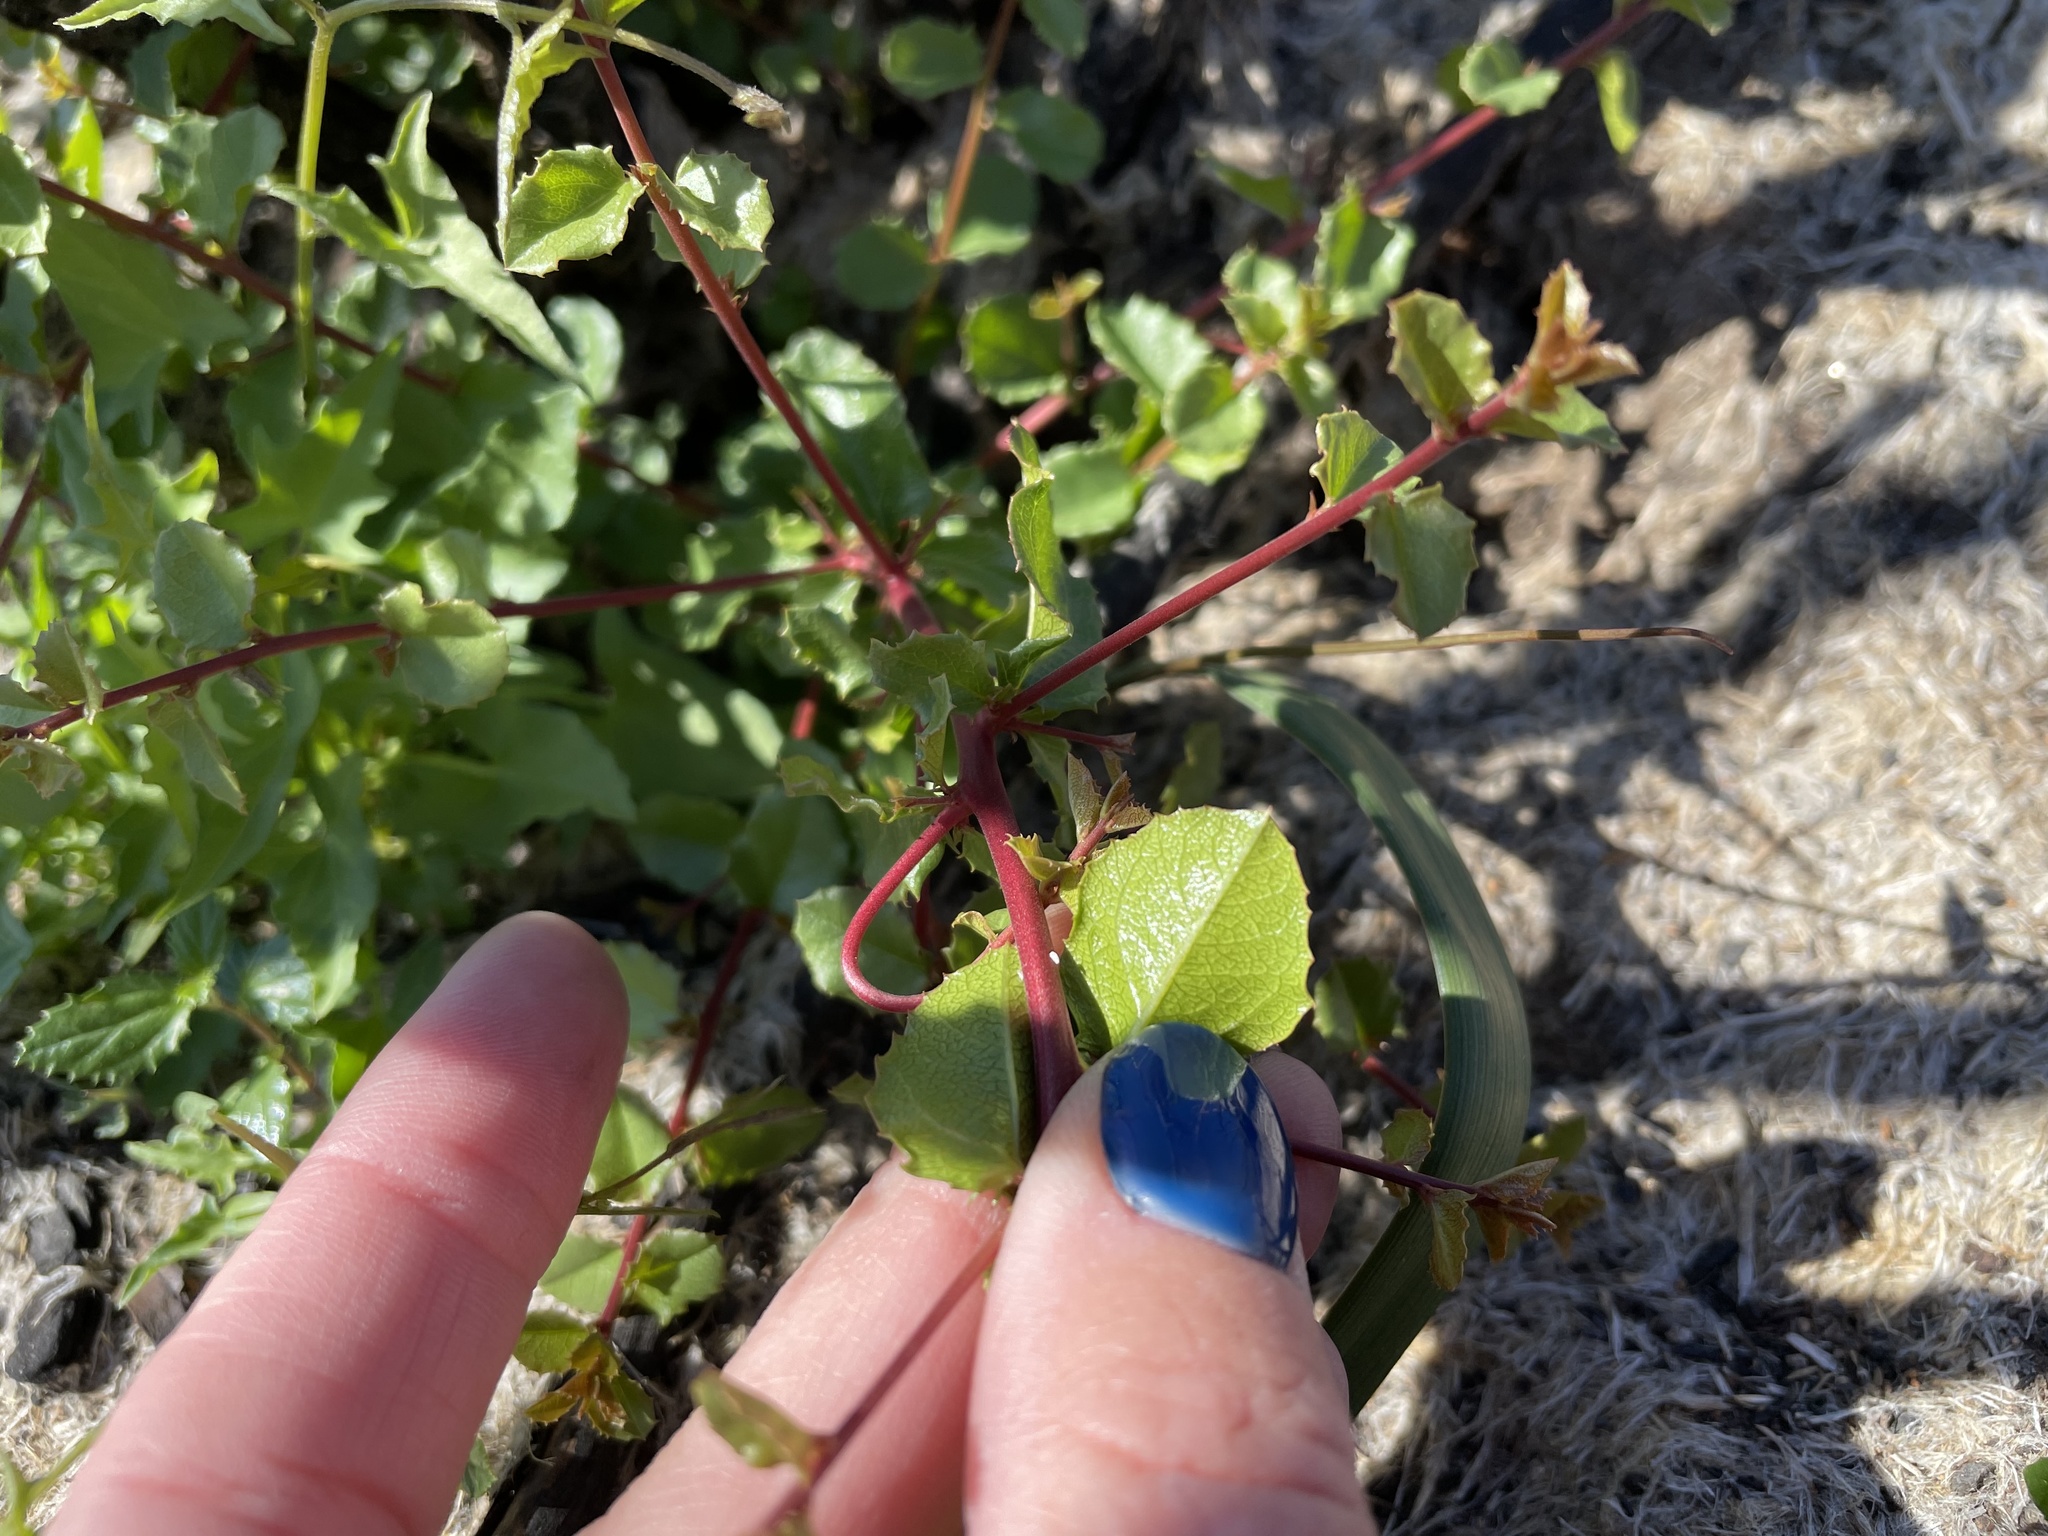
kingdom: Plantae
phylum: Tracheophyta
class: Magnoliopsida
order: Rosales
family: Rhamnaceae
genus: Endotropis
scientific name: Endotropis crocea
